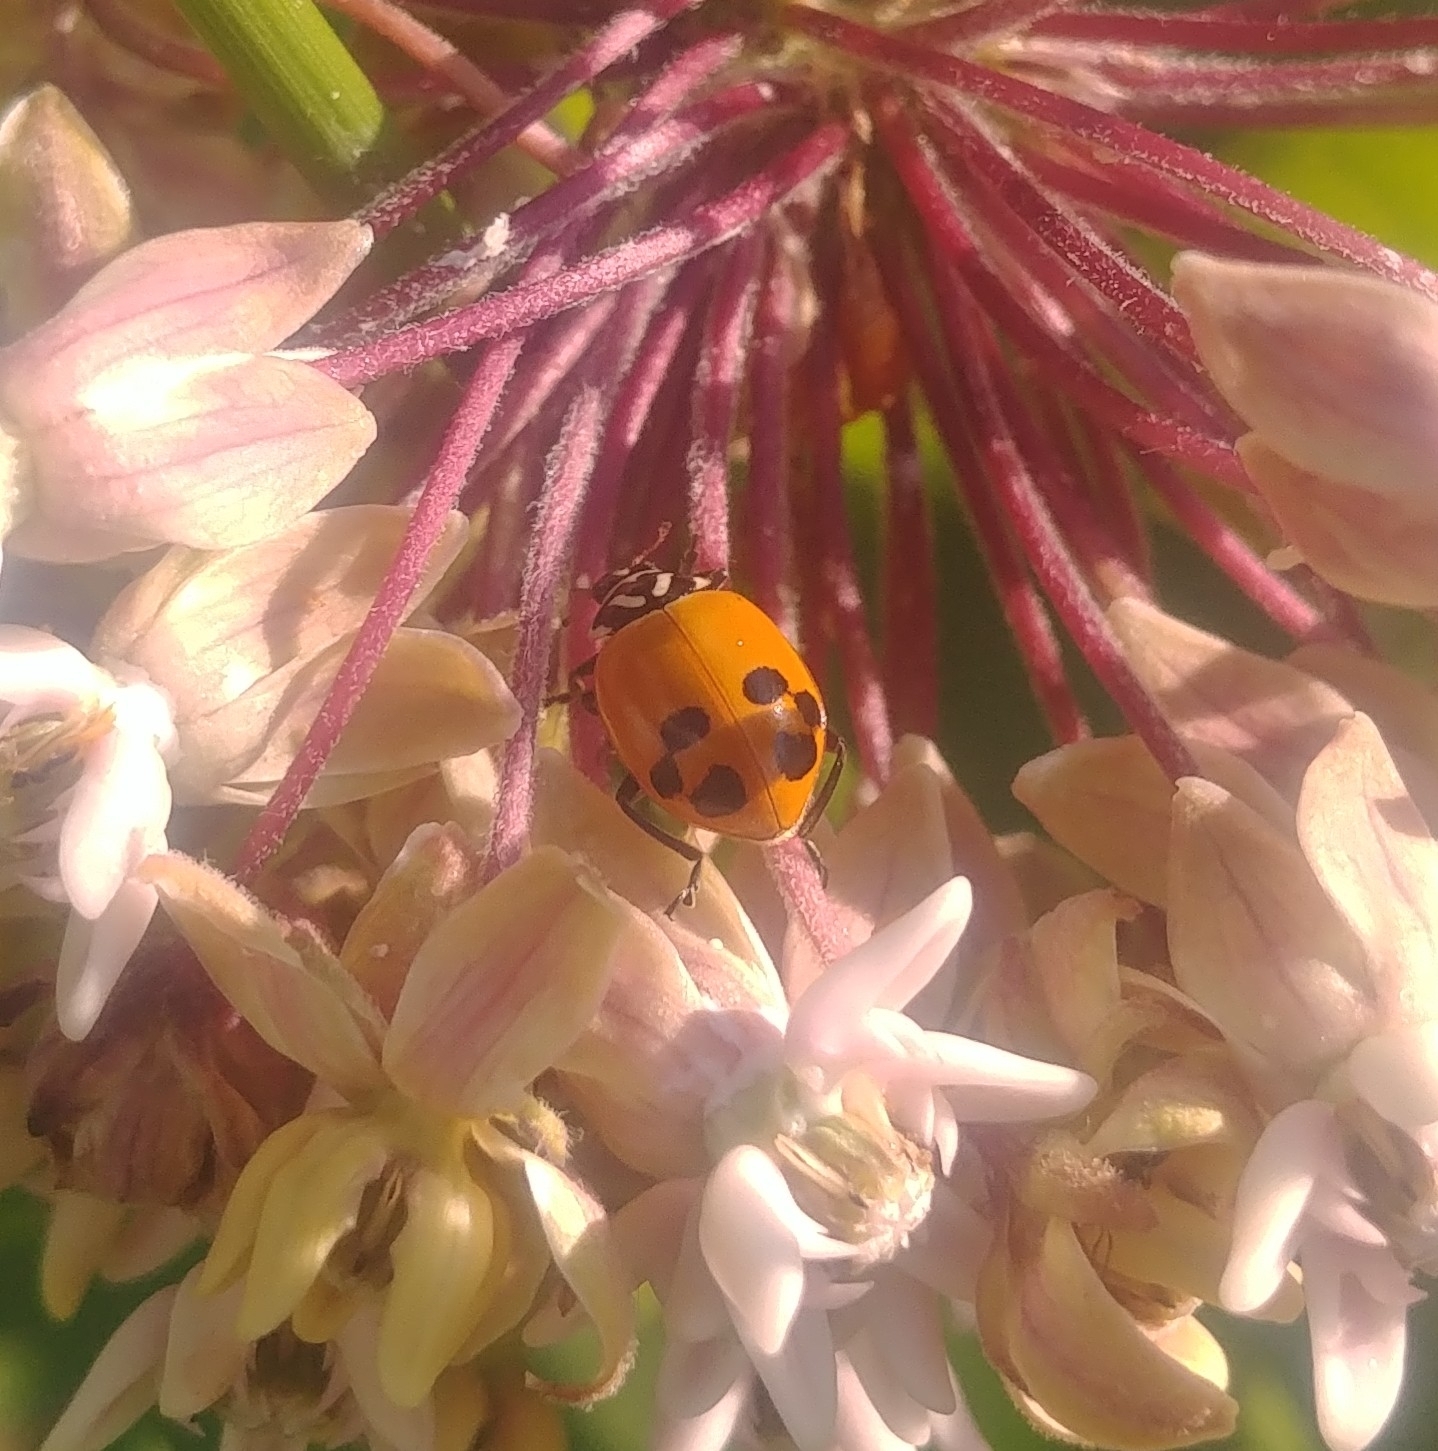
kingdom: Animalia
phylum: Arthropoda
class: Insecta
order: Coleoptera
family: Coccinellidae
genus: Hippodamia
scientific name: Hippodamia glacialis
